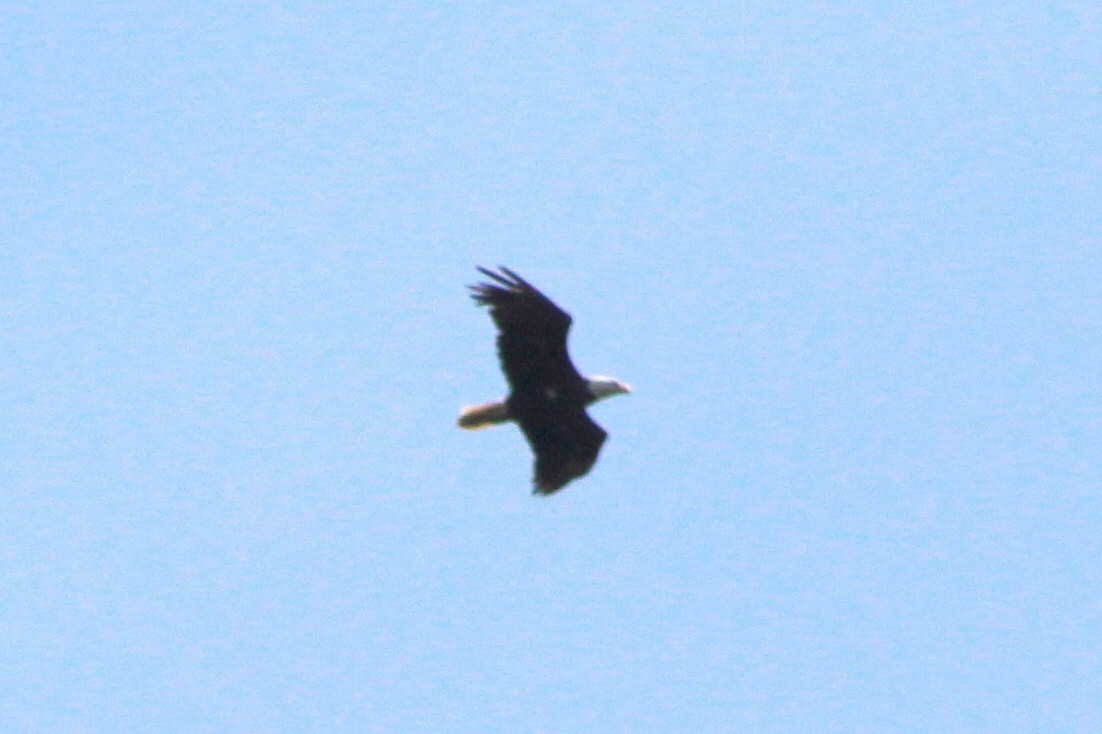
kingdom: Animalia
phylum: Chordata
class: Aves
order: Accipitriformes
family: Accipitridae
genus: Haliaeetus
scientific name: Haliaeetus leucocephalus
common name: Bald eagle
